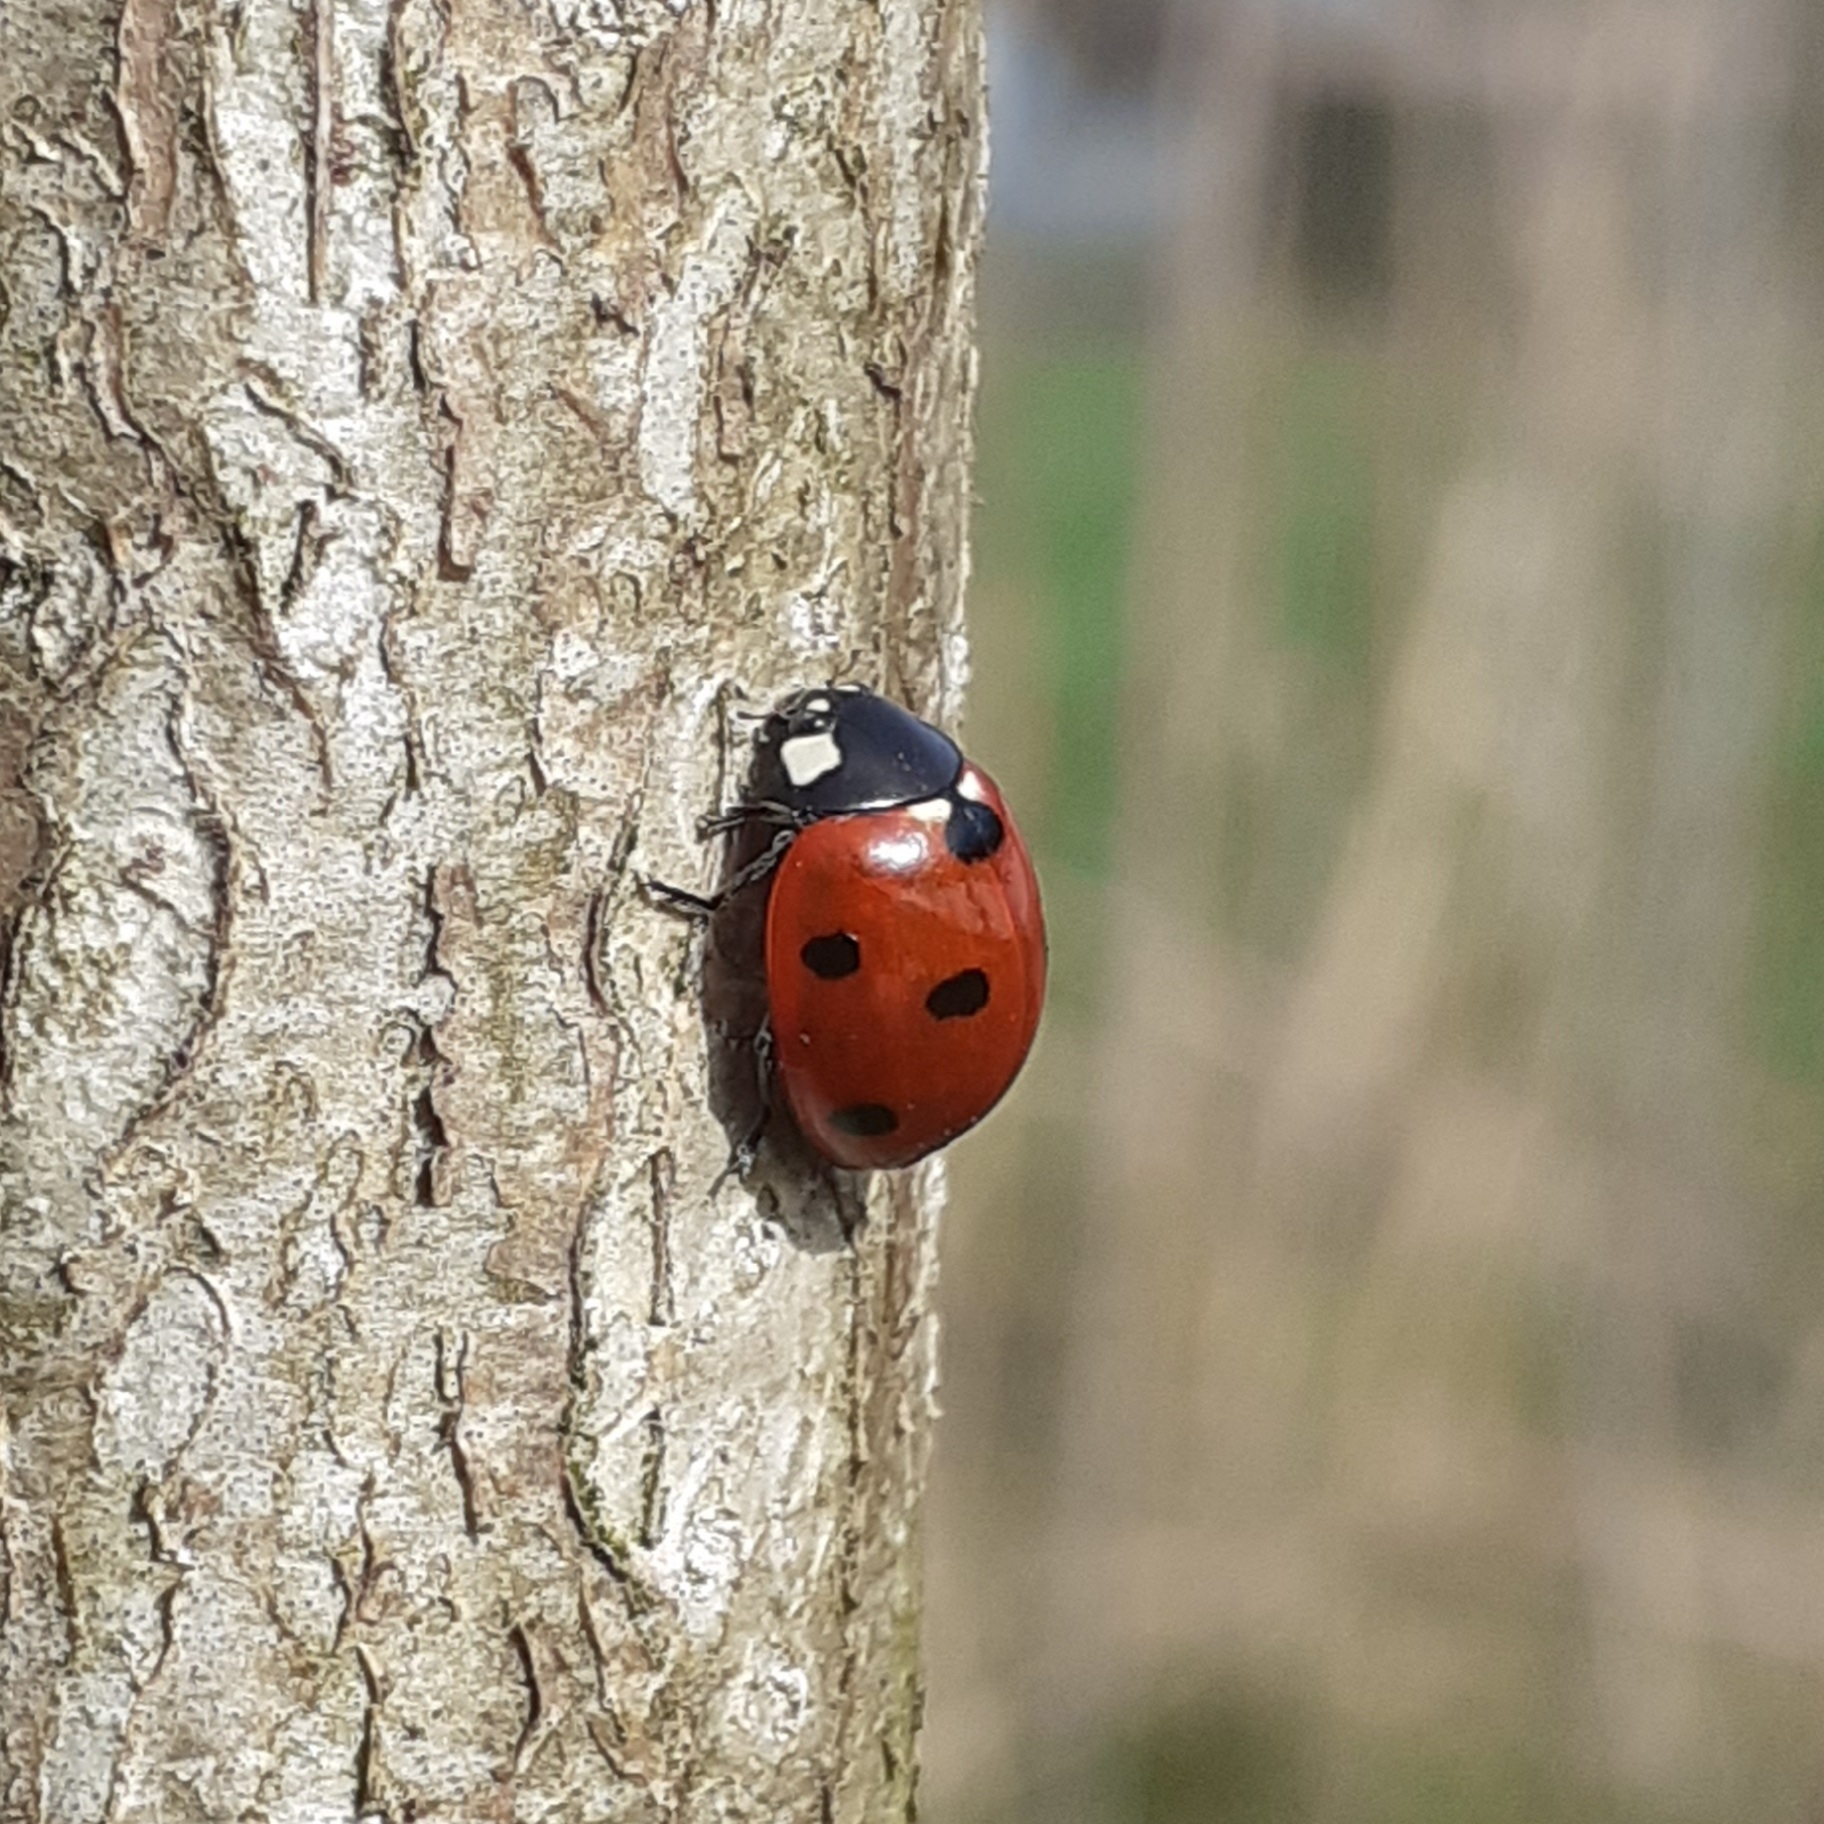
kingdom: Animalia
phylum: Arthropoda
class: Insecta
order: Coleoptera
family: Coccinellidae
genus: Coccinella
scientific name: Coccinella septempunctata
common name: Sevenspotted lady beetle
